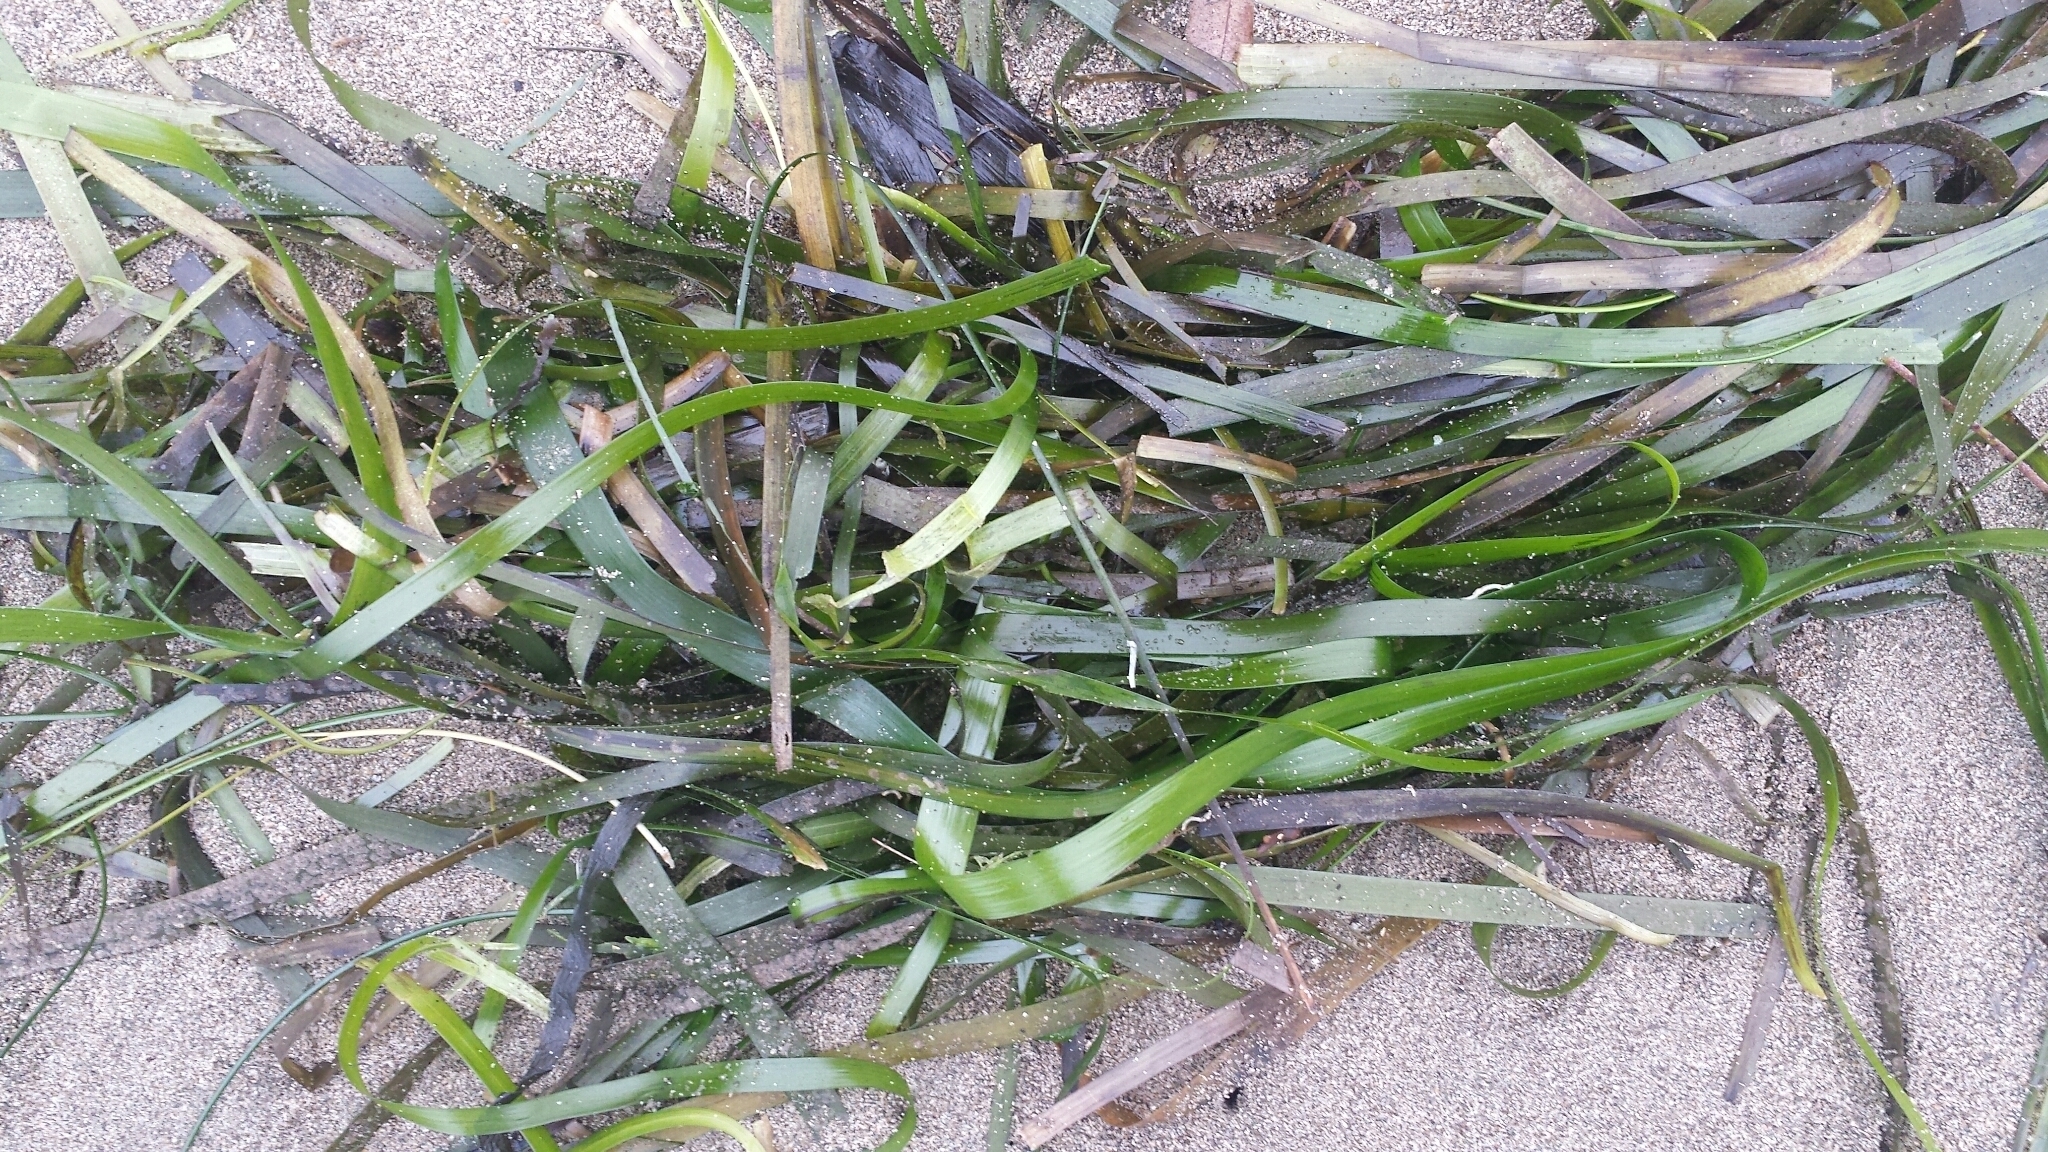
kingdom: Plantae
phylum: Tracheophyta
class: Liliopsida
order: Alismatales
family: Zosteraceae
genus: Zostera
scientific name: Zostera marina
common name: Eelgrass
